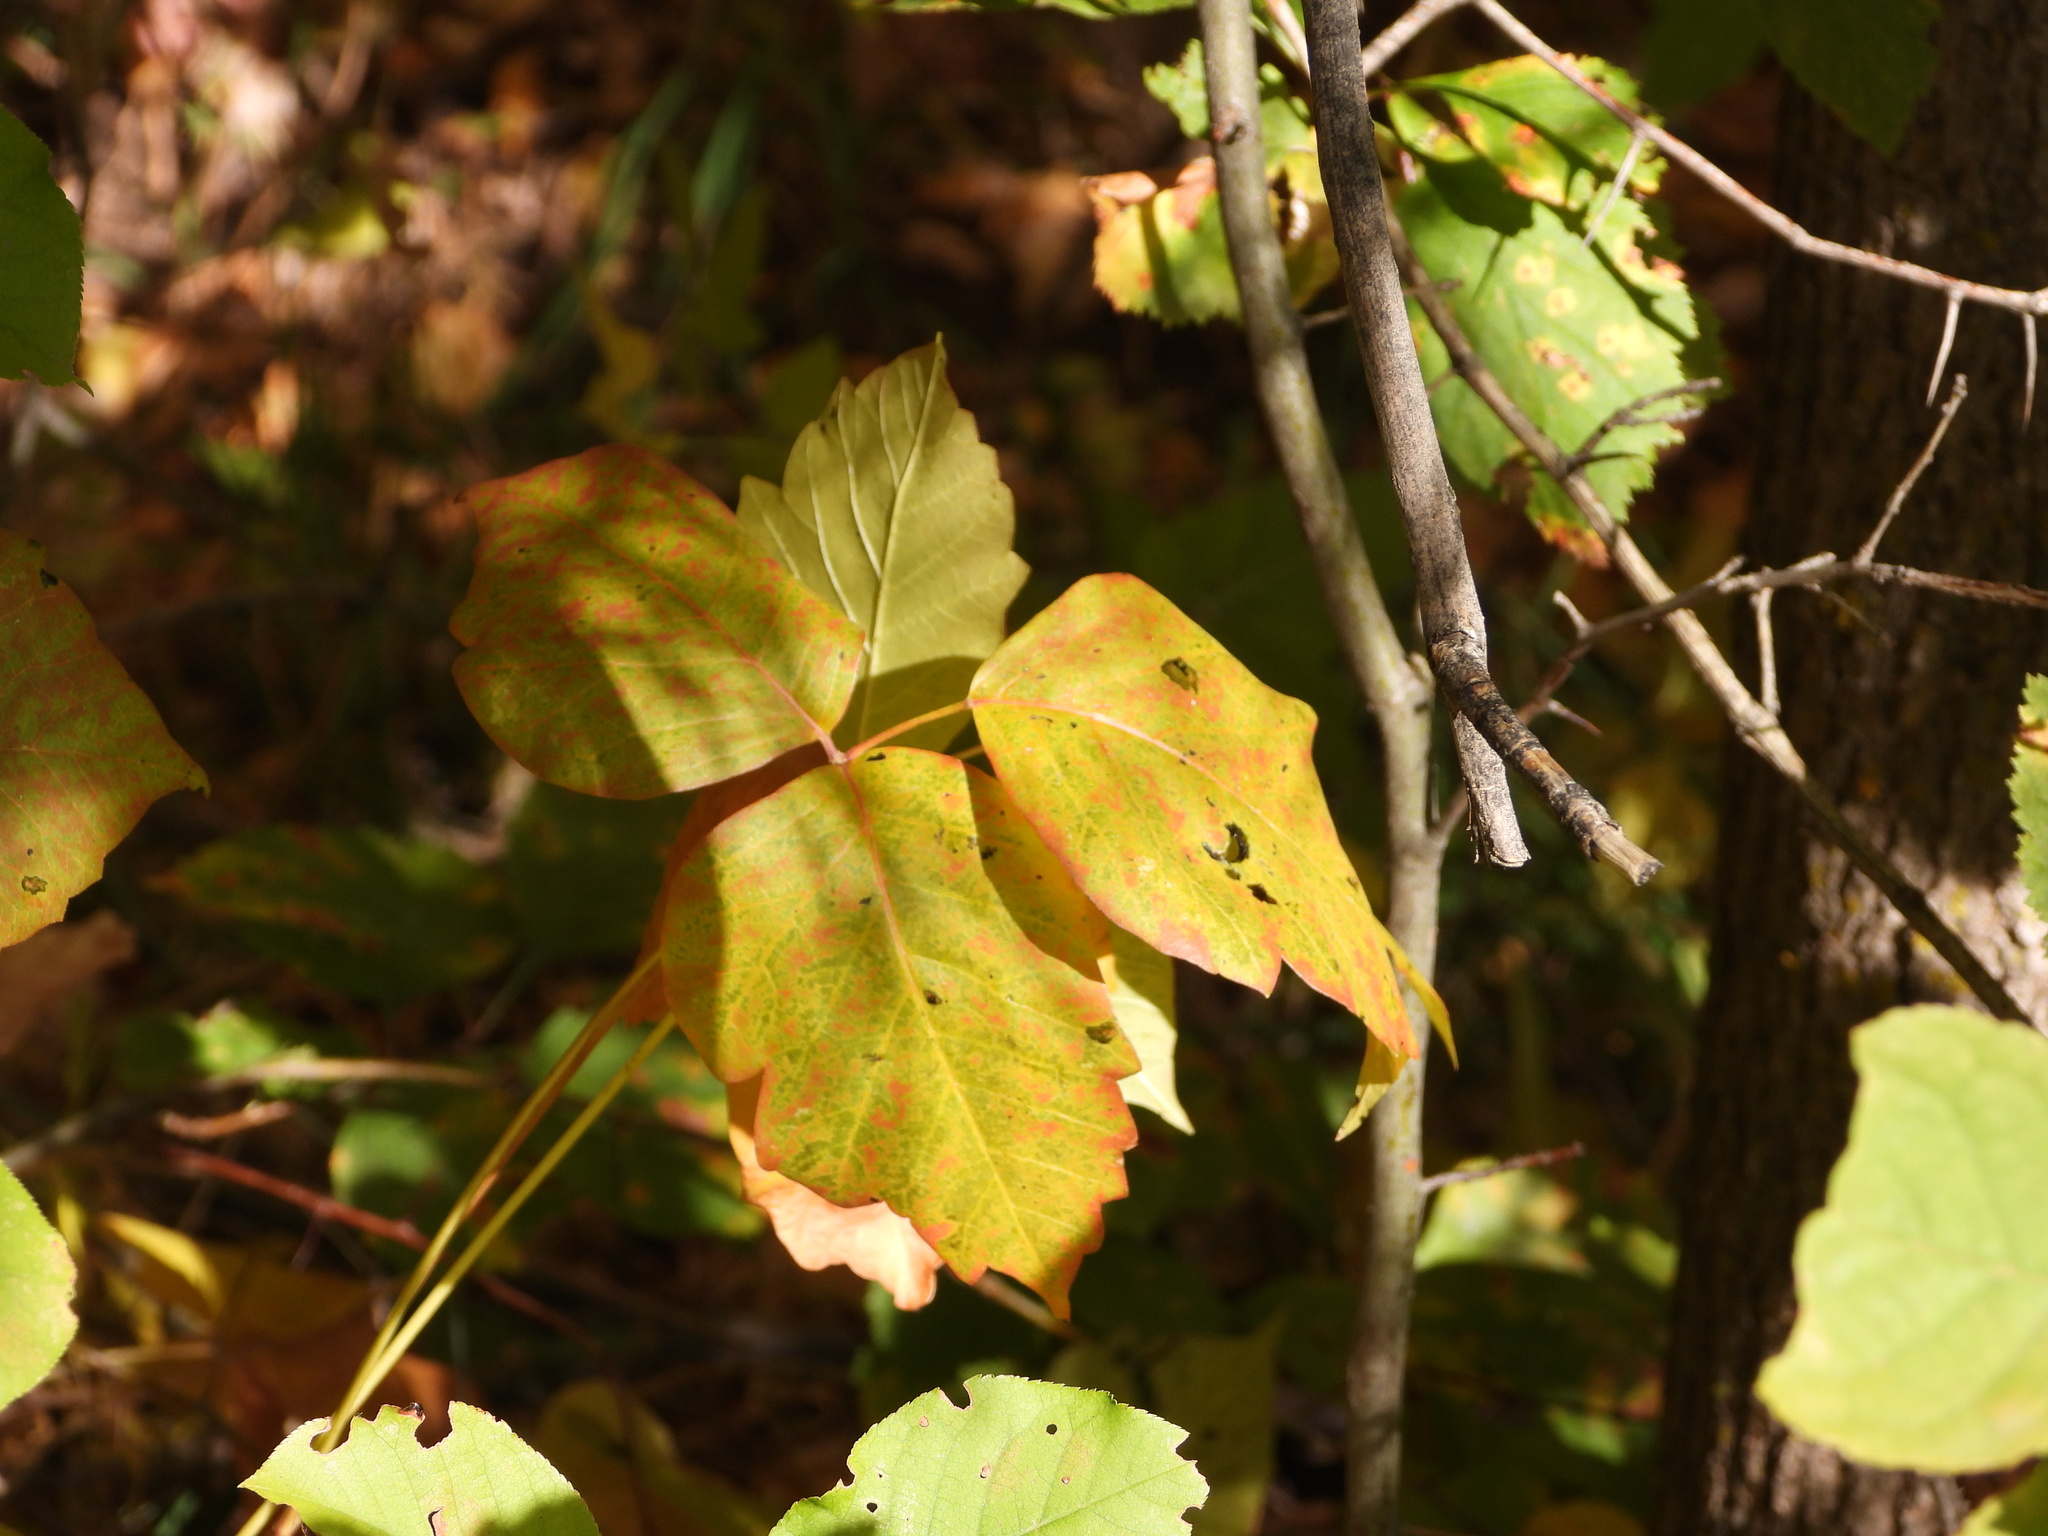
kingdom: Plantae
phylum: Tracheophyta
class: Magnoliopsida
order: Sapindales
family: Anacardiaceae
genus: Toxicodendron
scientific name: Toxicodendron rydbergii
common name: Rydberg's poison-ivy
